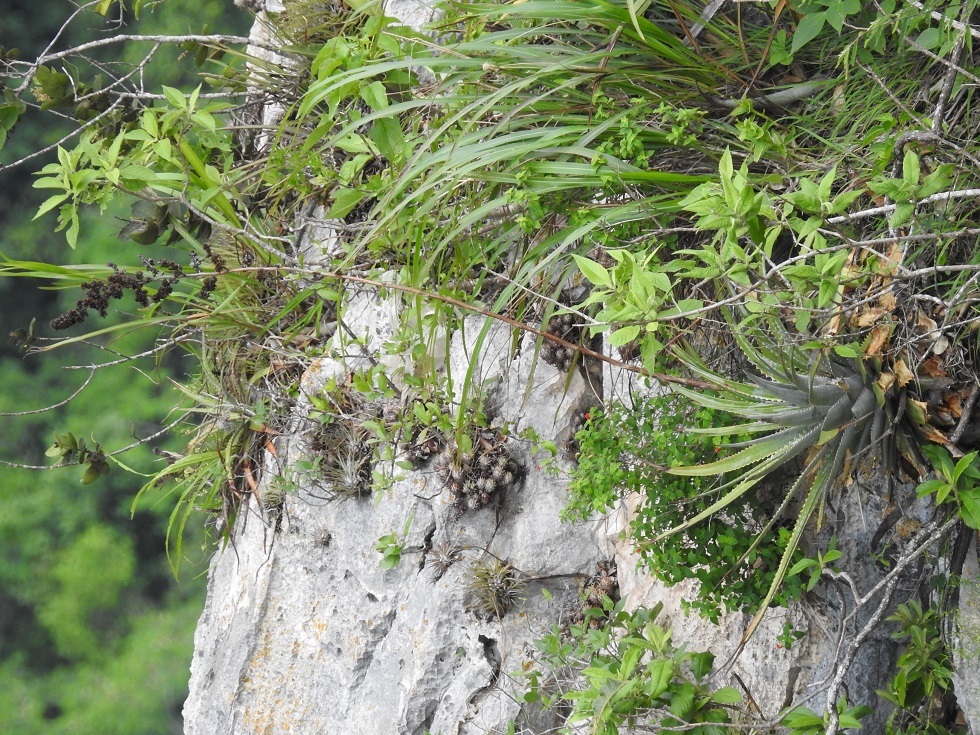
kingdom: Plantae
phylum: Tracheophyta
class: Liliopsida
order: Poales
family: Bromeliaceae
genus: Hechtia
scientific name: Hechtia glomerata
